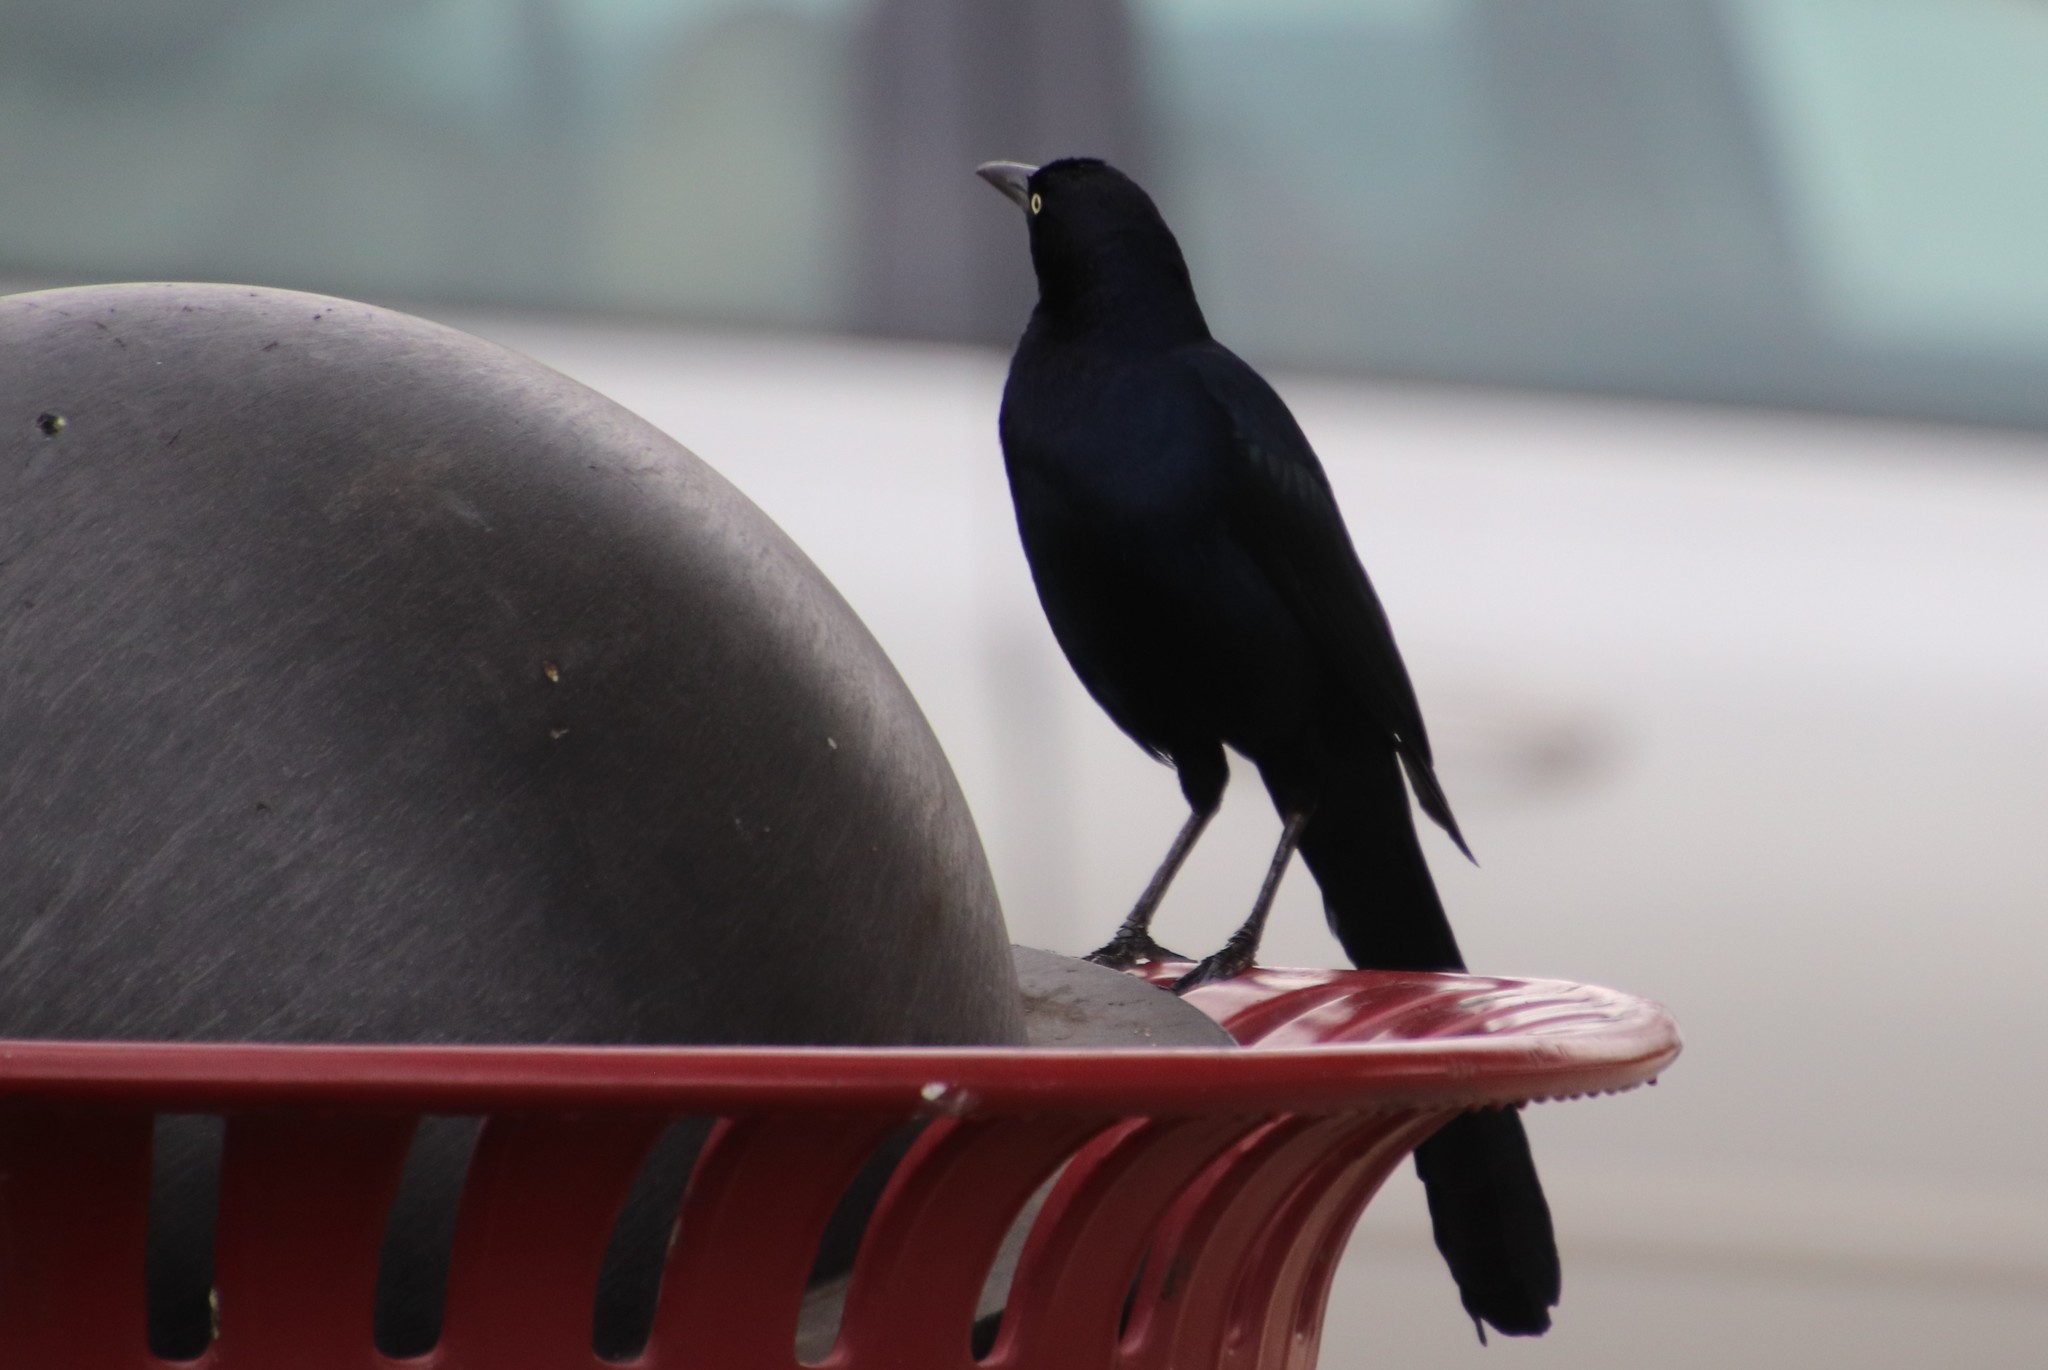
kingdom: Animalia
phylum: Chordata
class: Aves
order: Passeriformes
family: Icteridae
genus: Quiscalus
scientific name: Quiscalus mexicanus
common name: Great-tailed grackle
